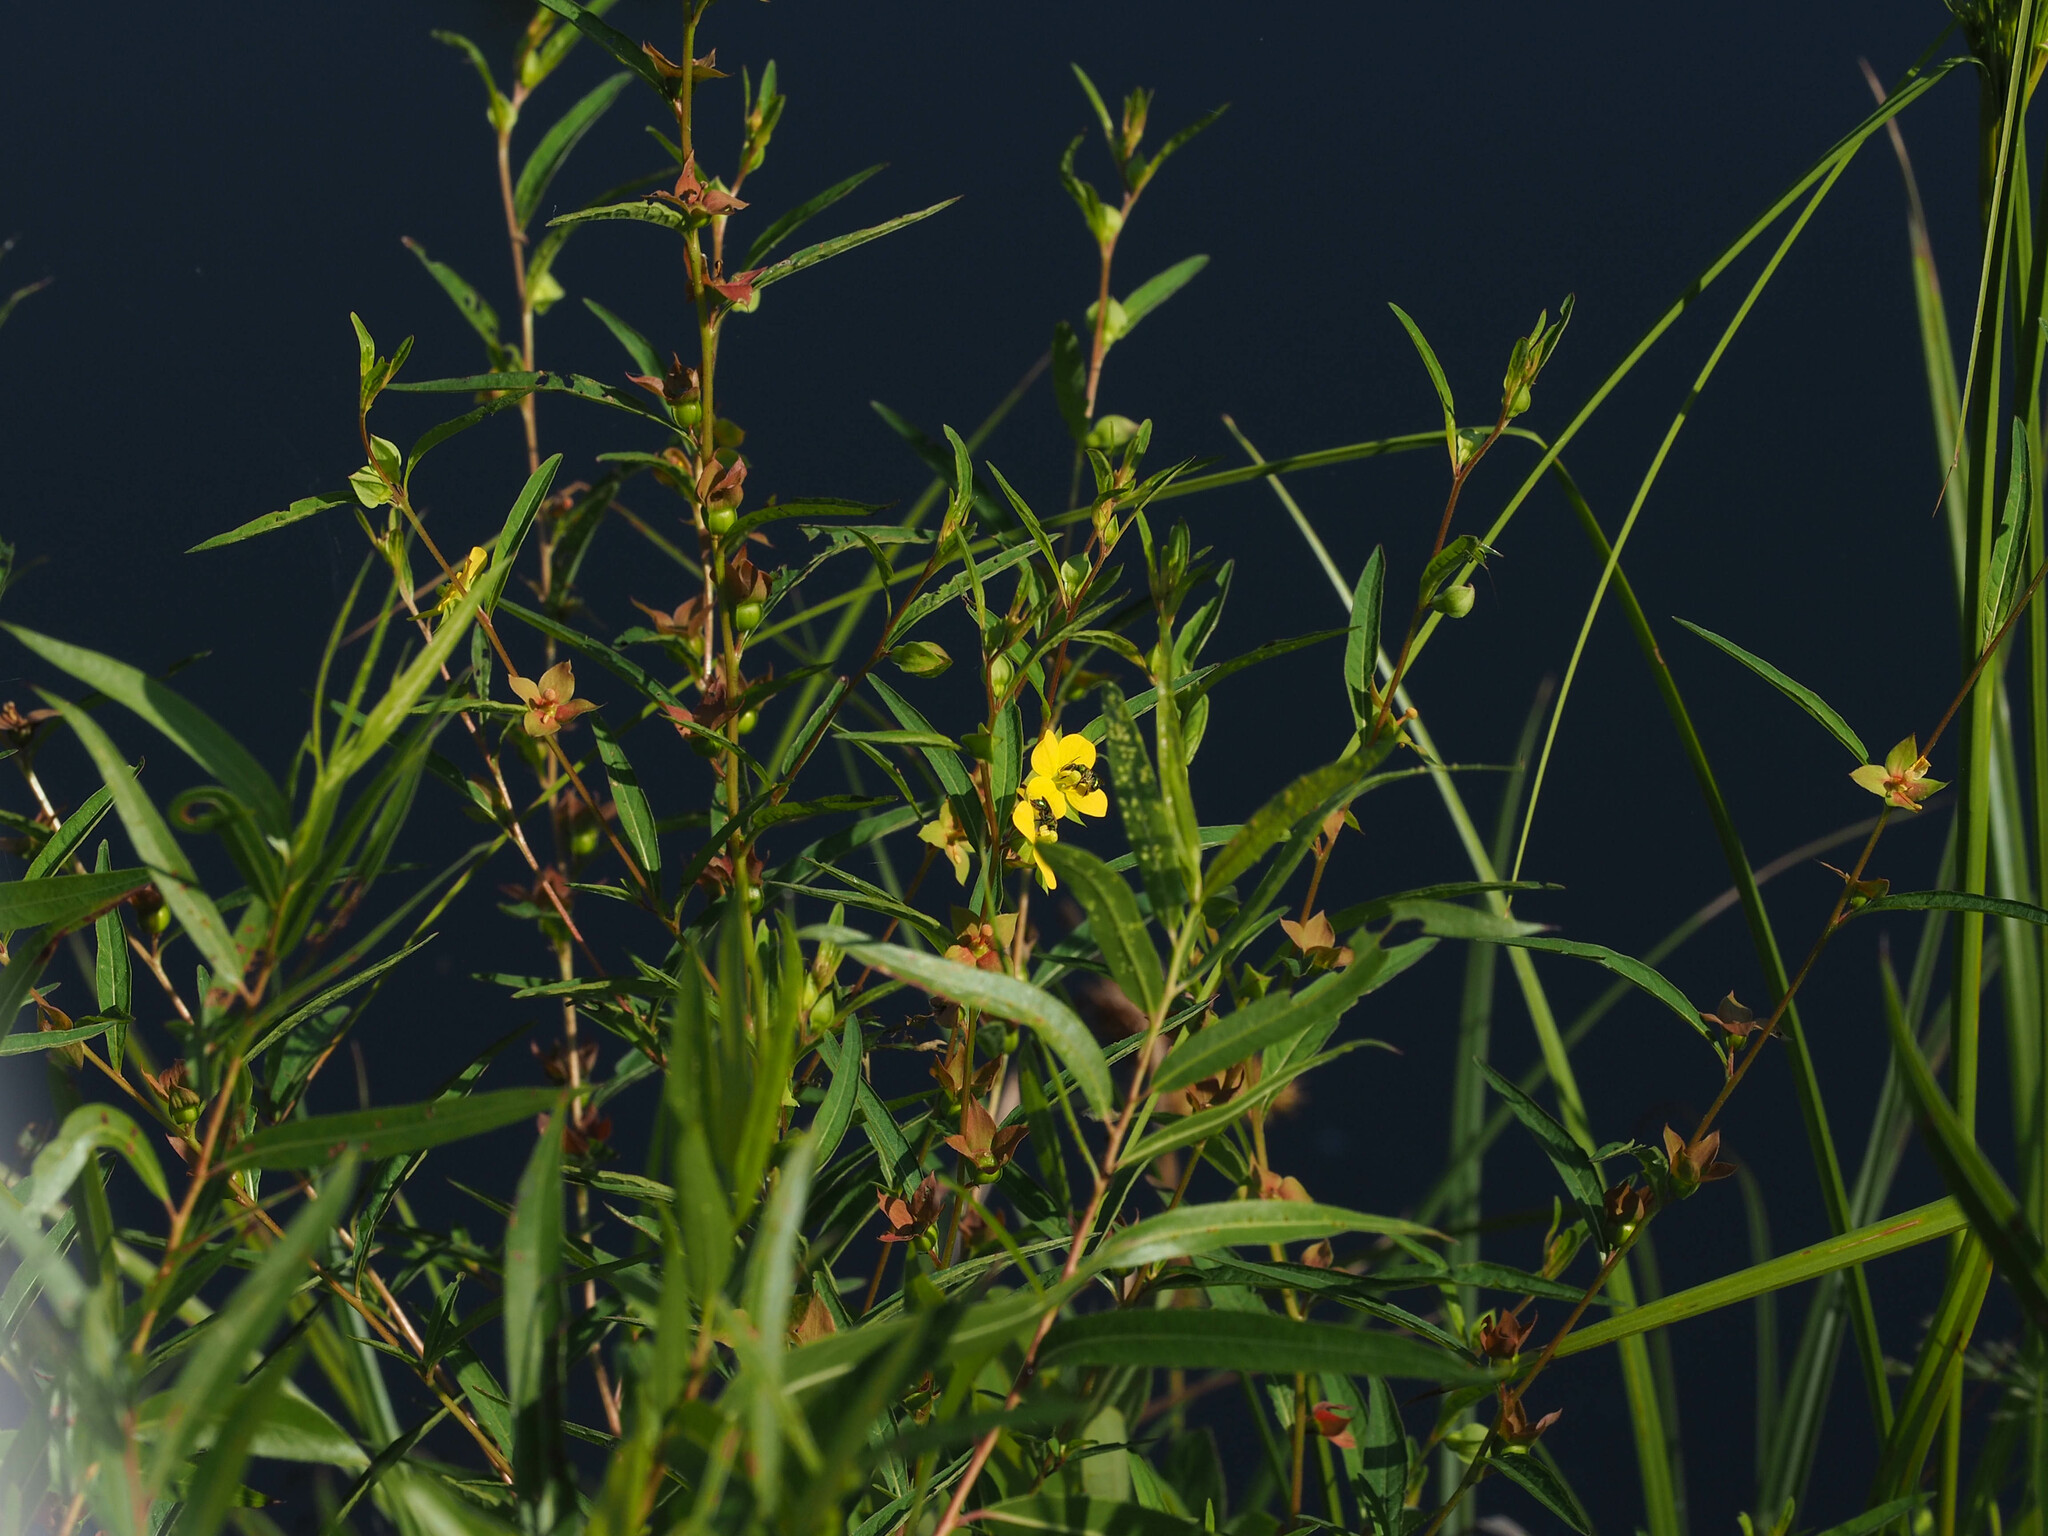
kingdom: Plantae
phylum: Tracheophyta
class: Magnoliopsida
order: Myrtales
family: Onagraceae
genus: Ludwigia
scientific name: Ludwigia alternifolia
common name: Rattlebox
